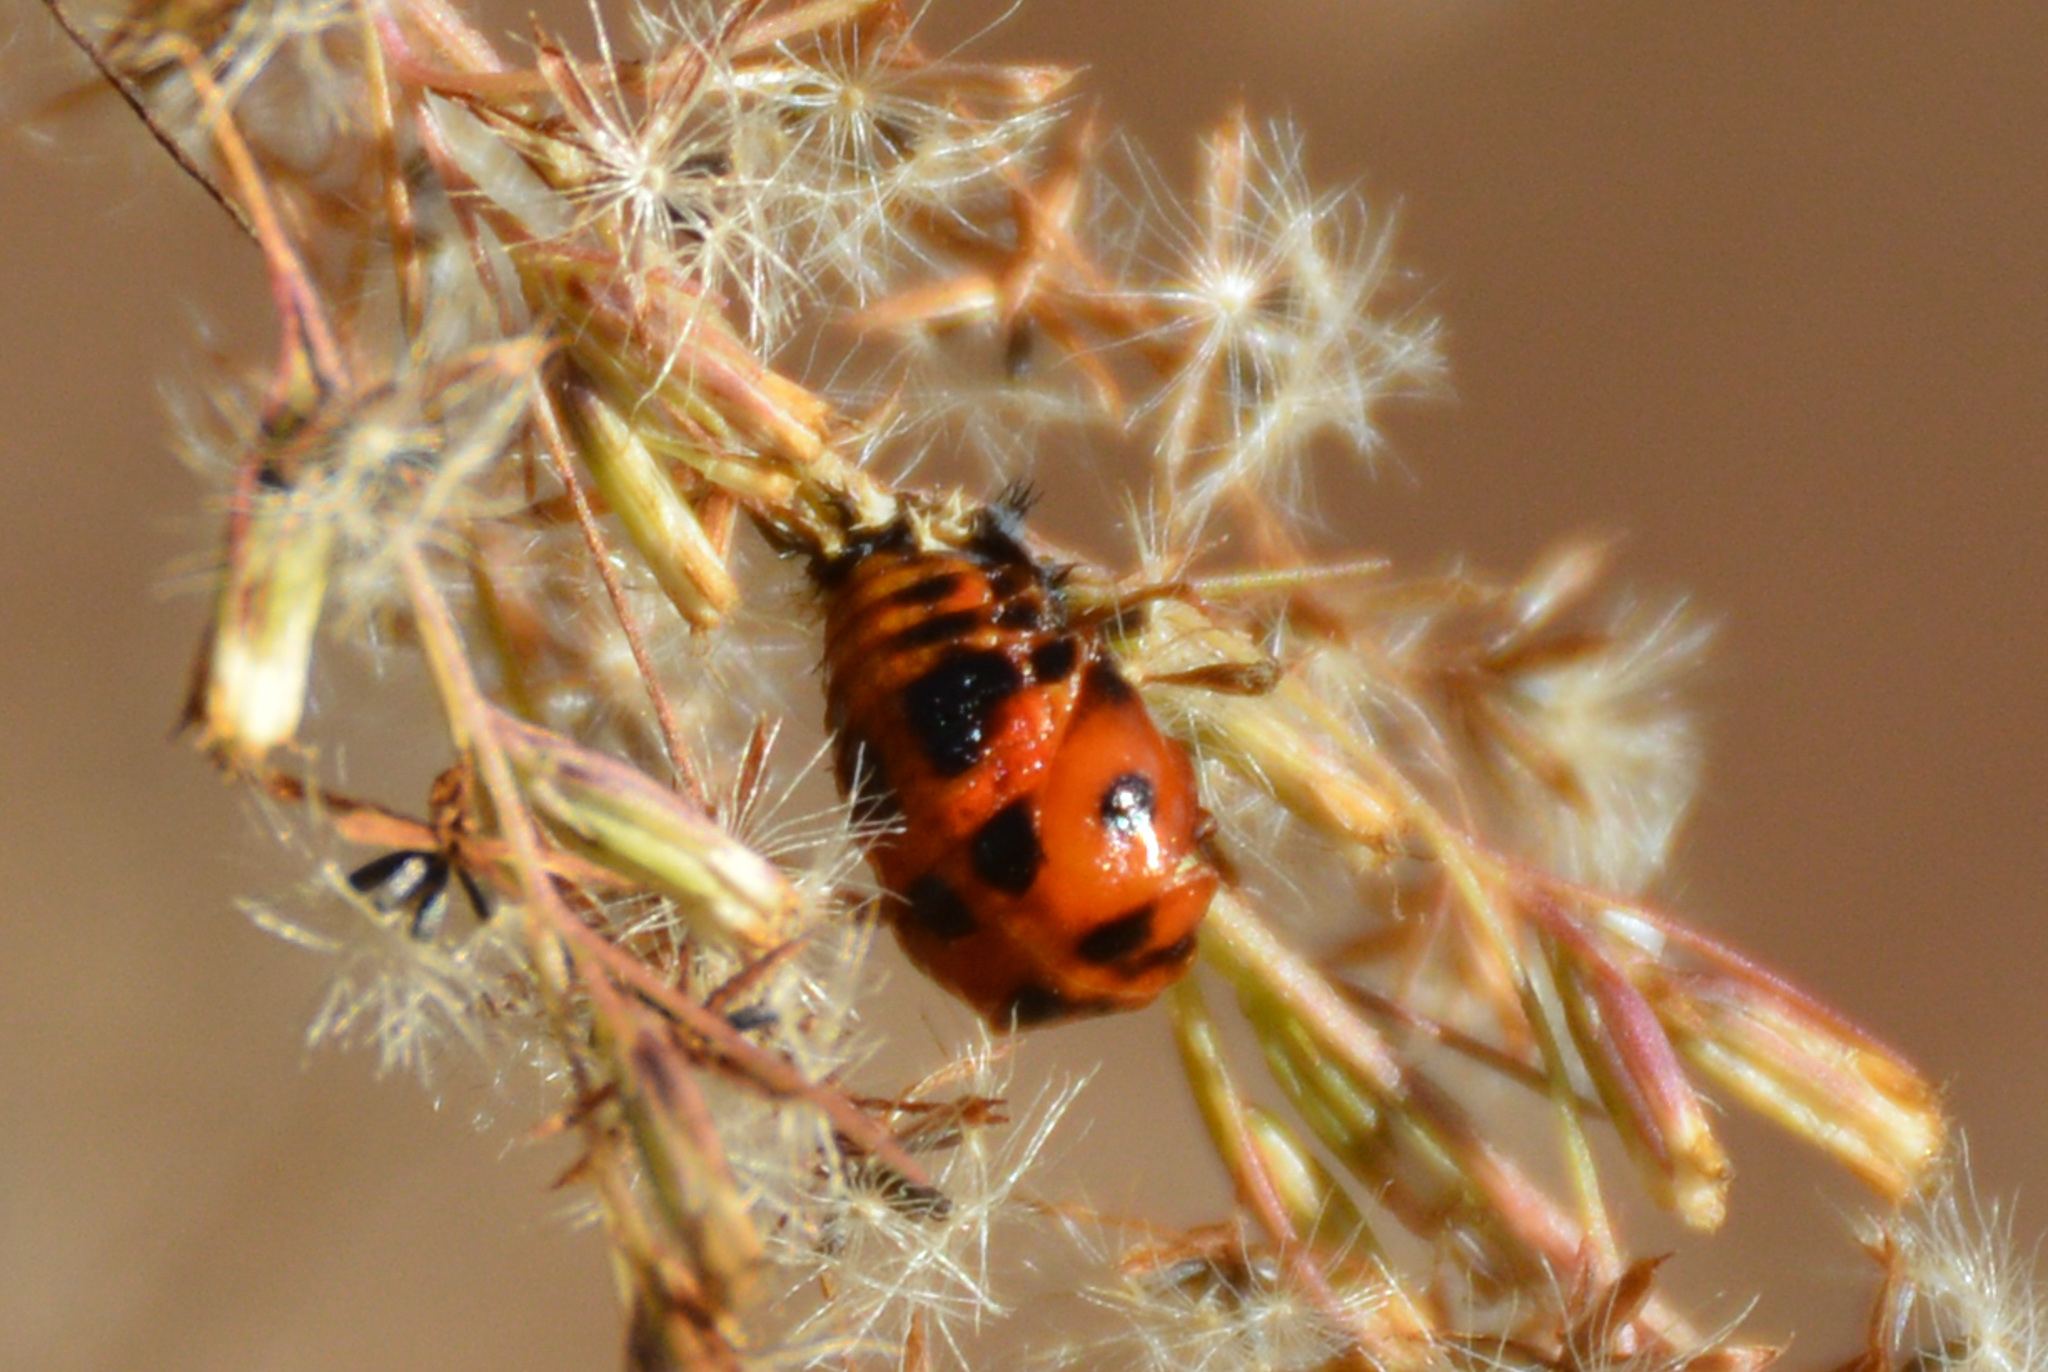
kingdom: Animalia
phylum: Arthropoda
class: Insecta
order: Coleoptera
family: Coccinellidae
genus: Harmonia
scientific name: Harmonia axyridis
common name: Harlequin ladybird
